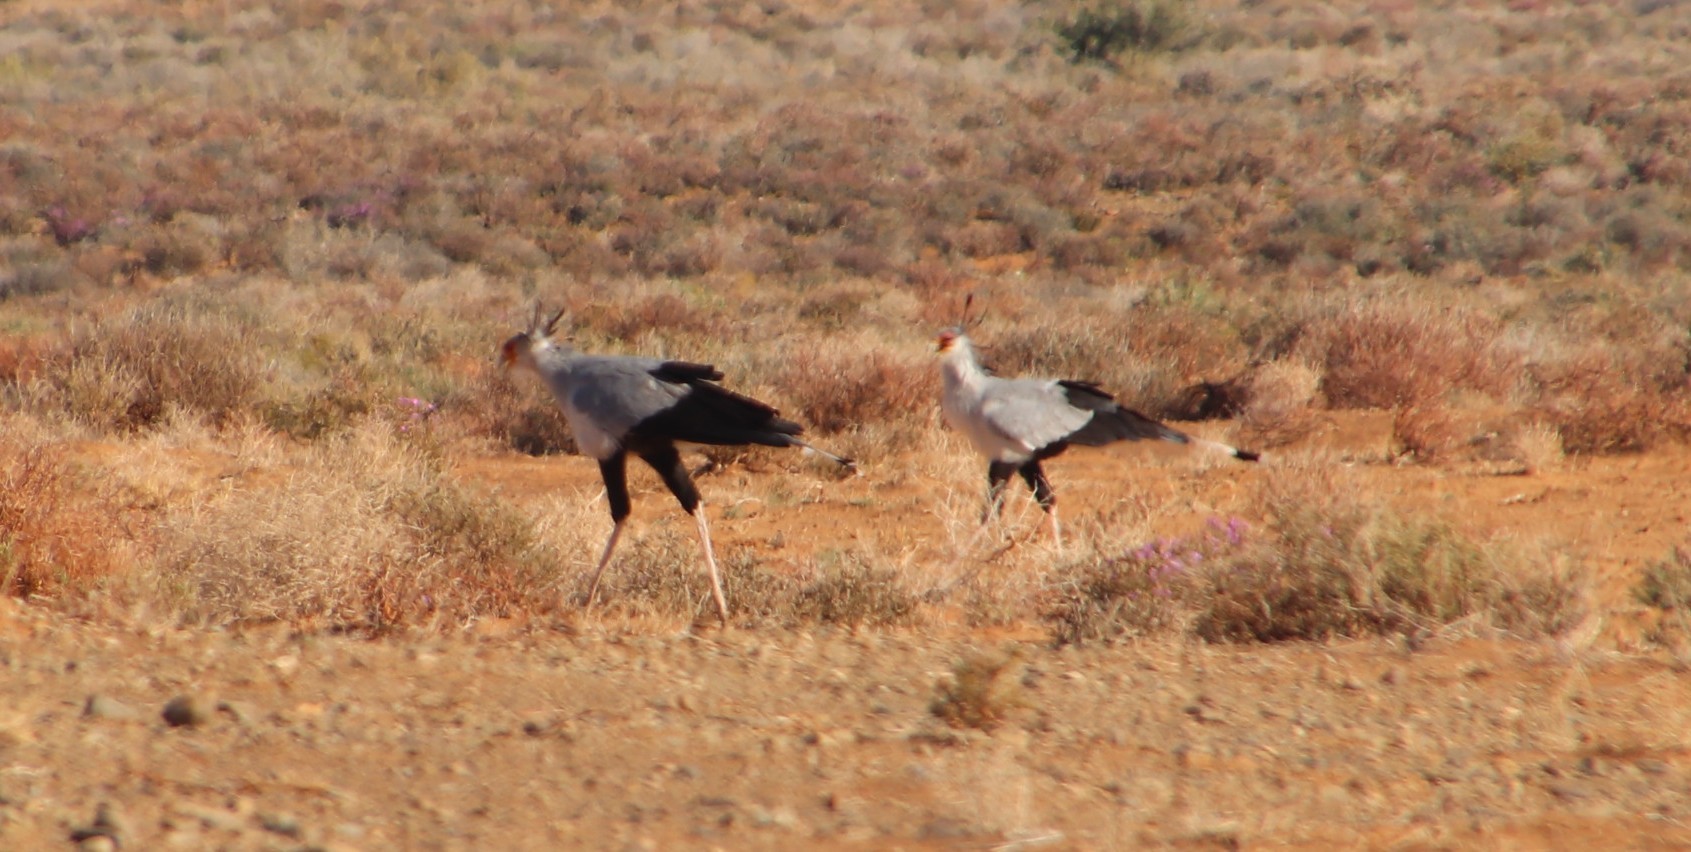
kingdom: Animalia
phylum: Chordata
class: Aves
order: Accipitriformes
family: Sagittariidae
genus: Sagittarius
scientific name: Sagittarius serpentarius
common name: Secretarybird
